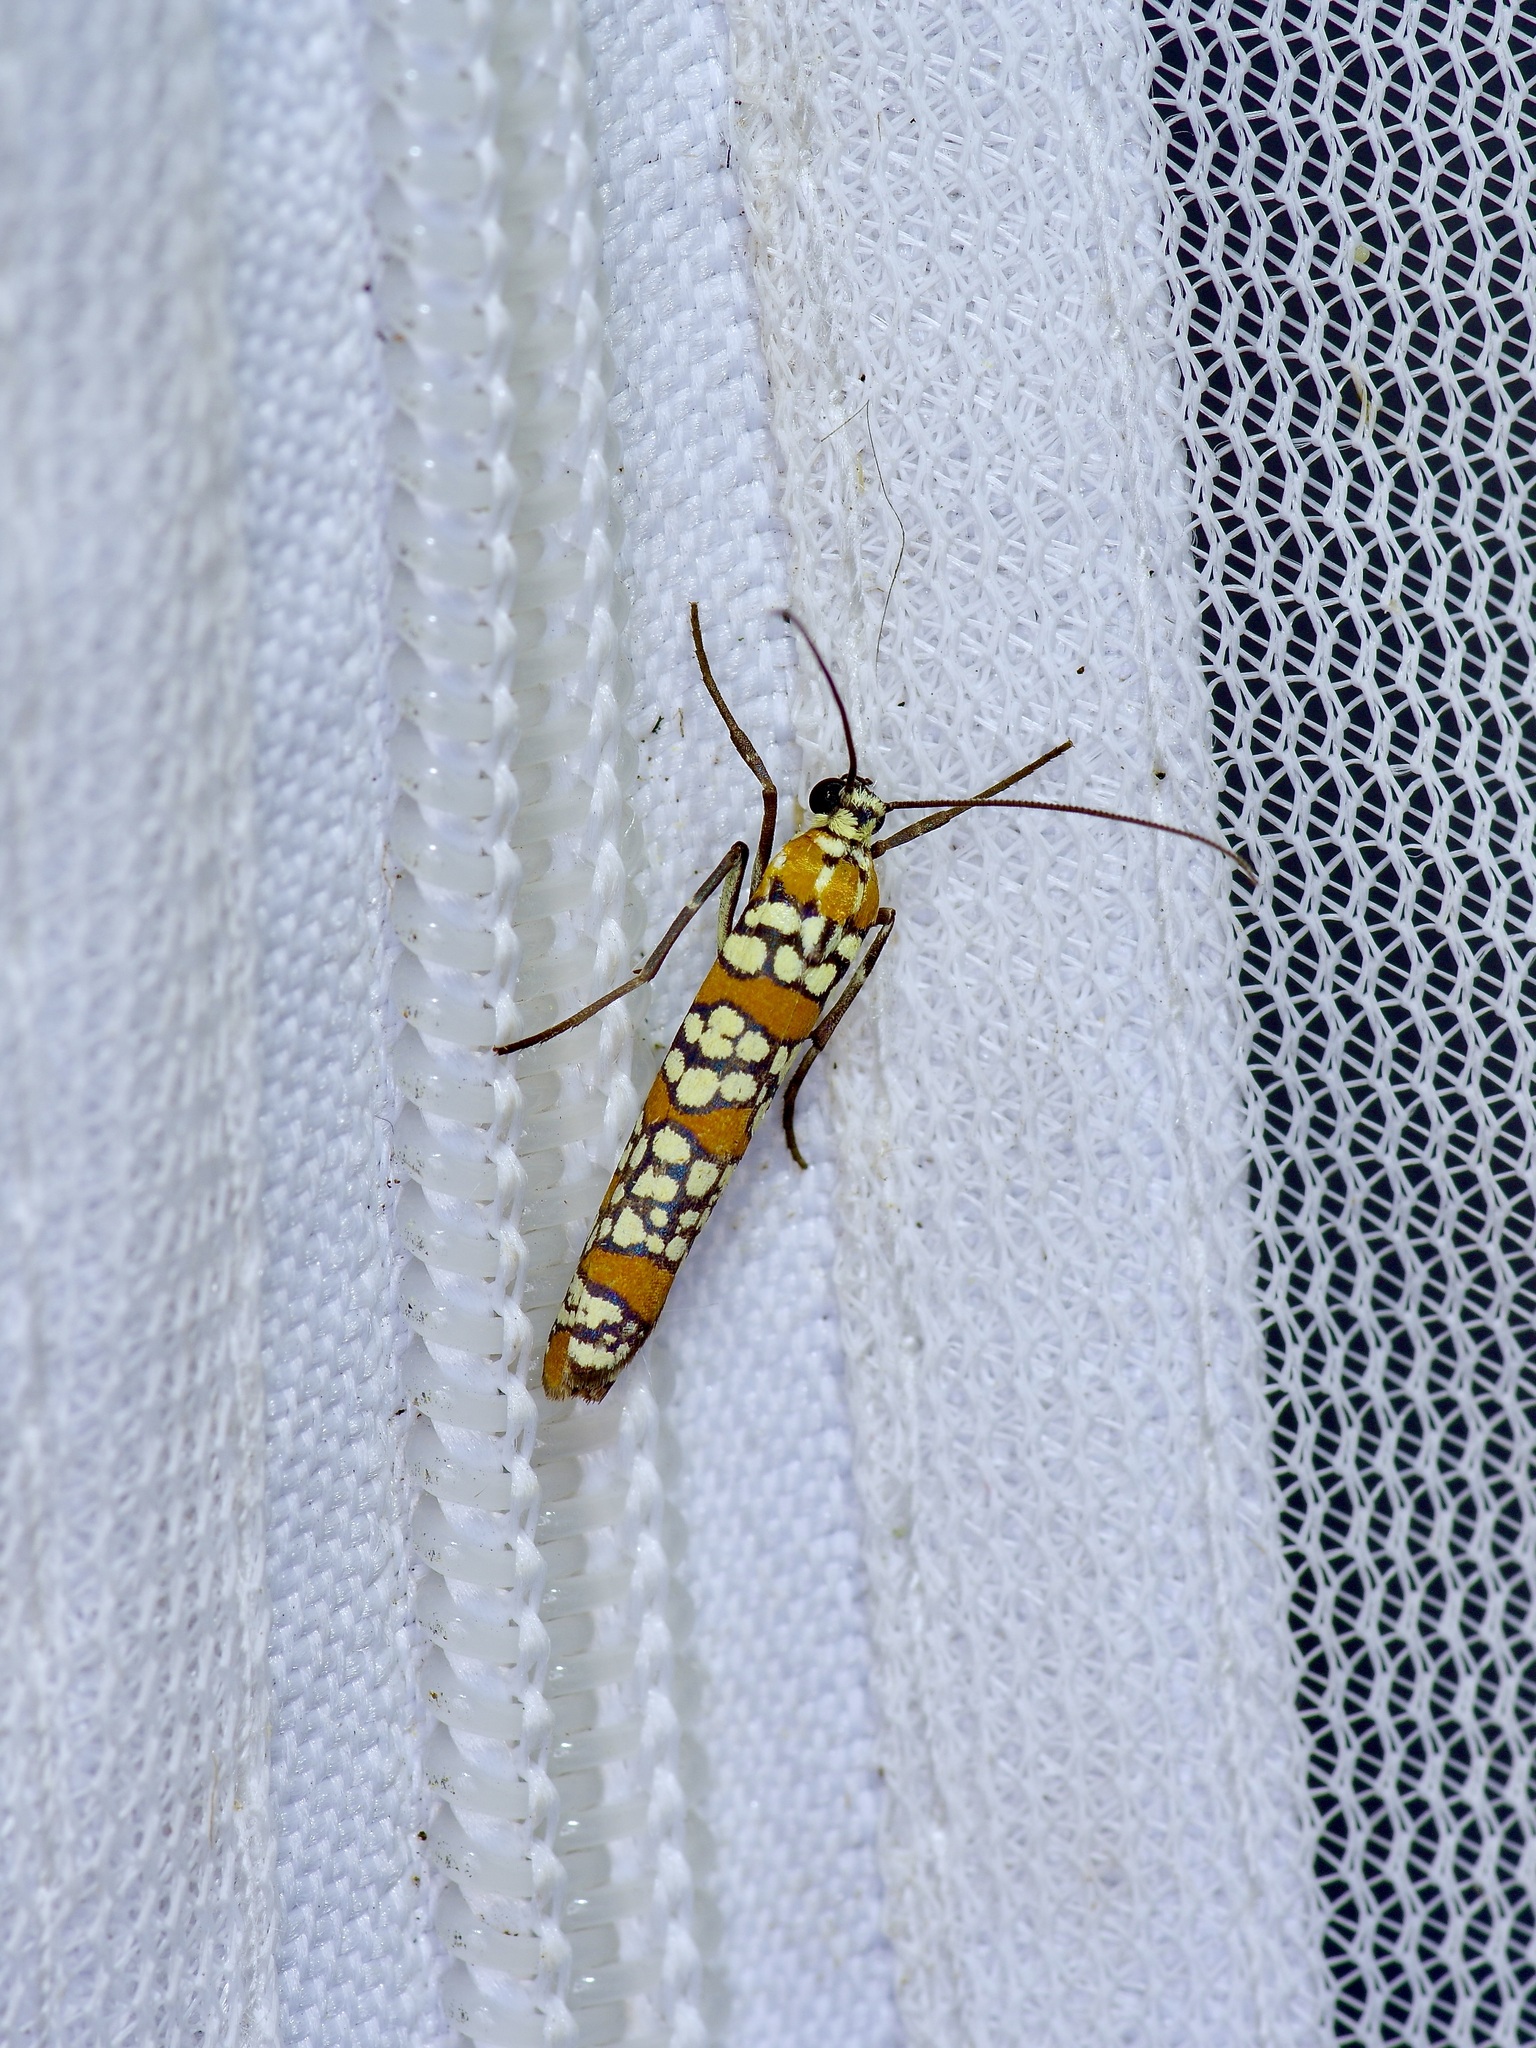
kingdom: Animalia
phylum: Arthropoda
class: Insecta
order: Lepidoptera
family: Attevidae
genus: Atteva
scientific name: Atteva punctella
